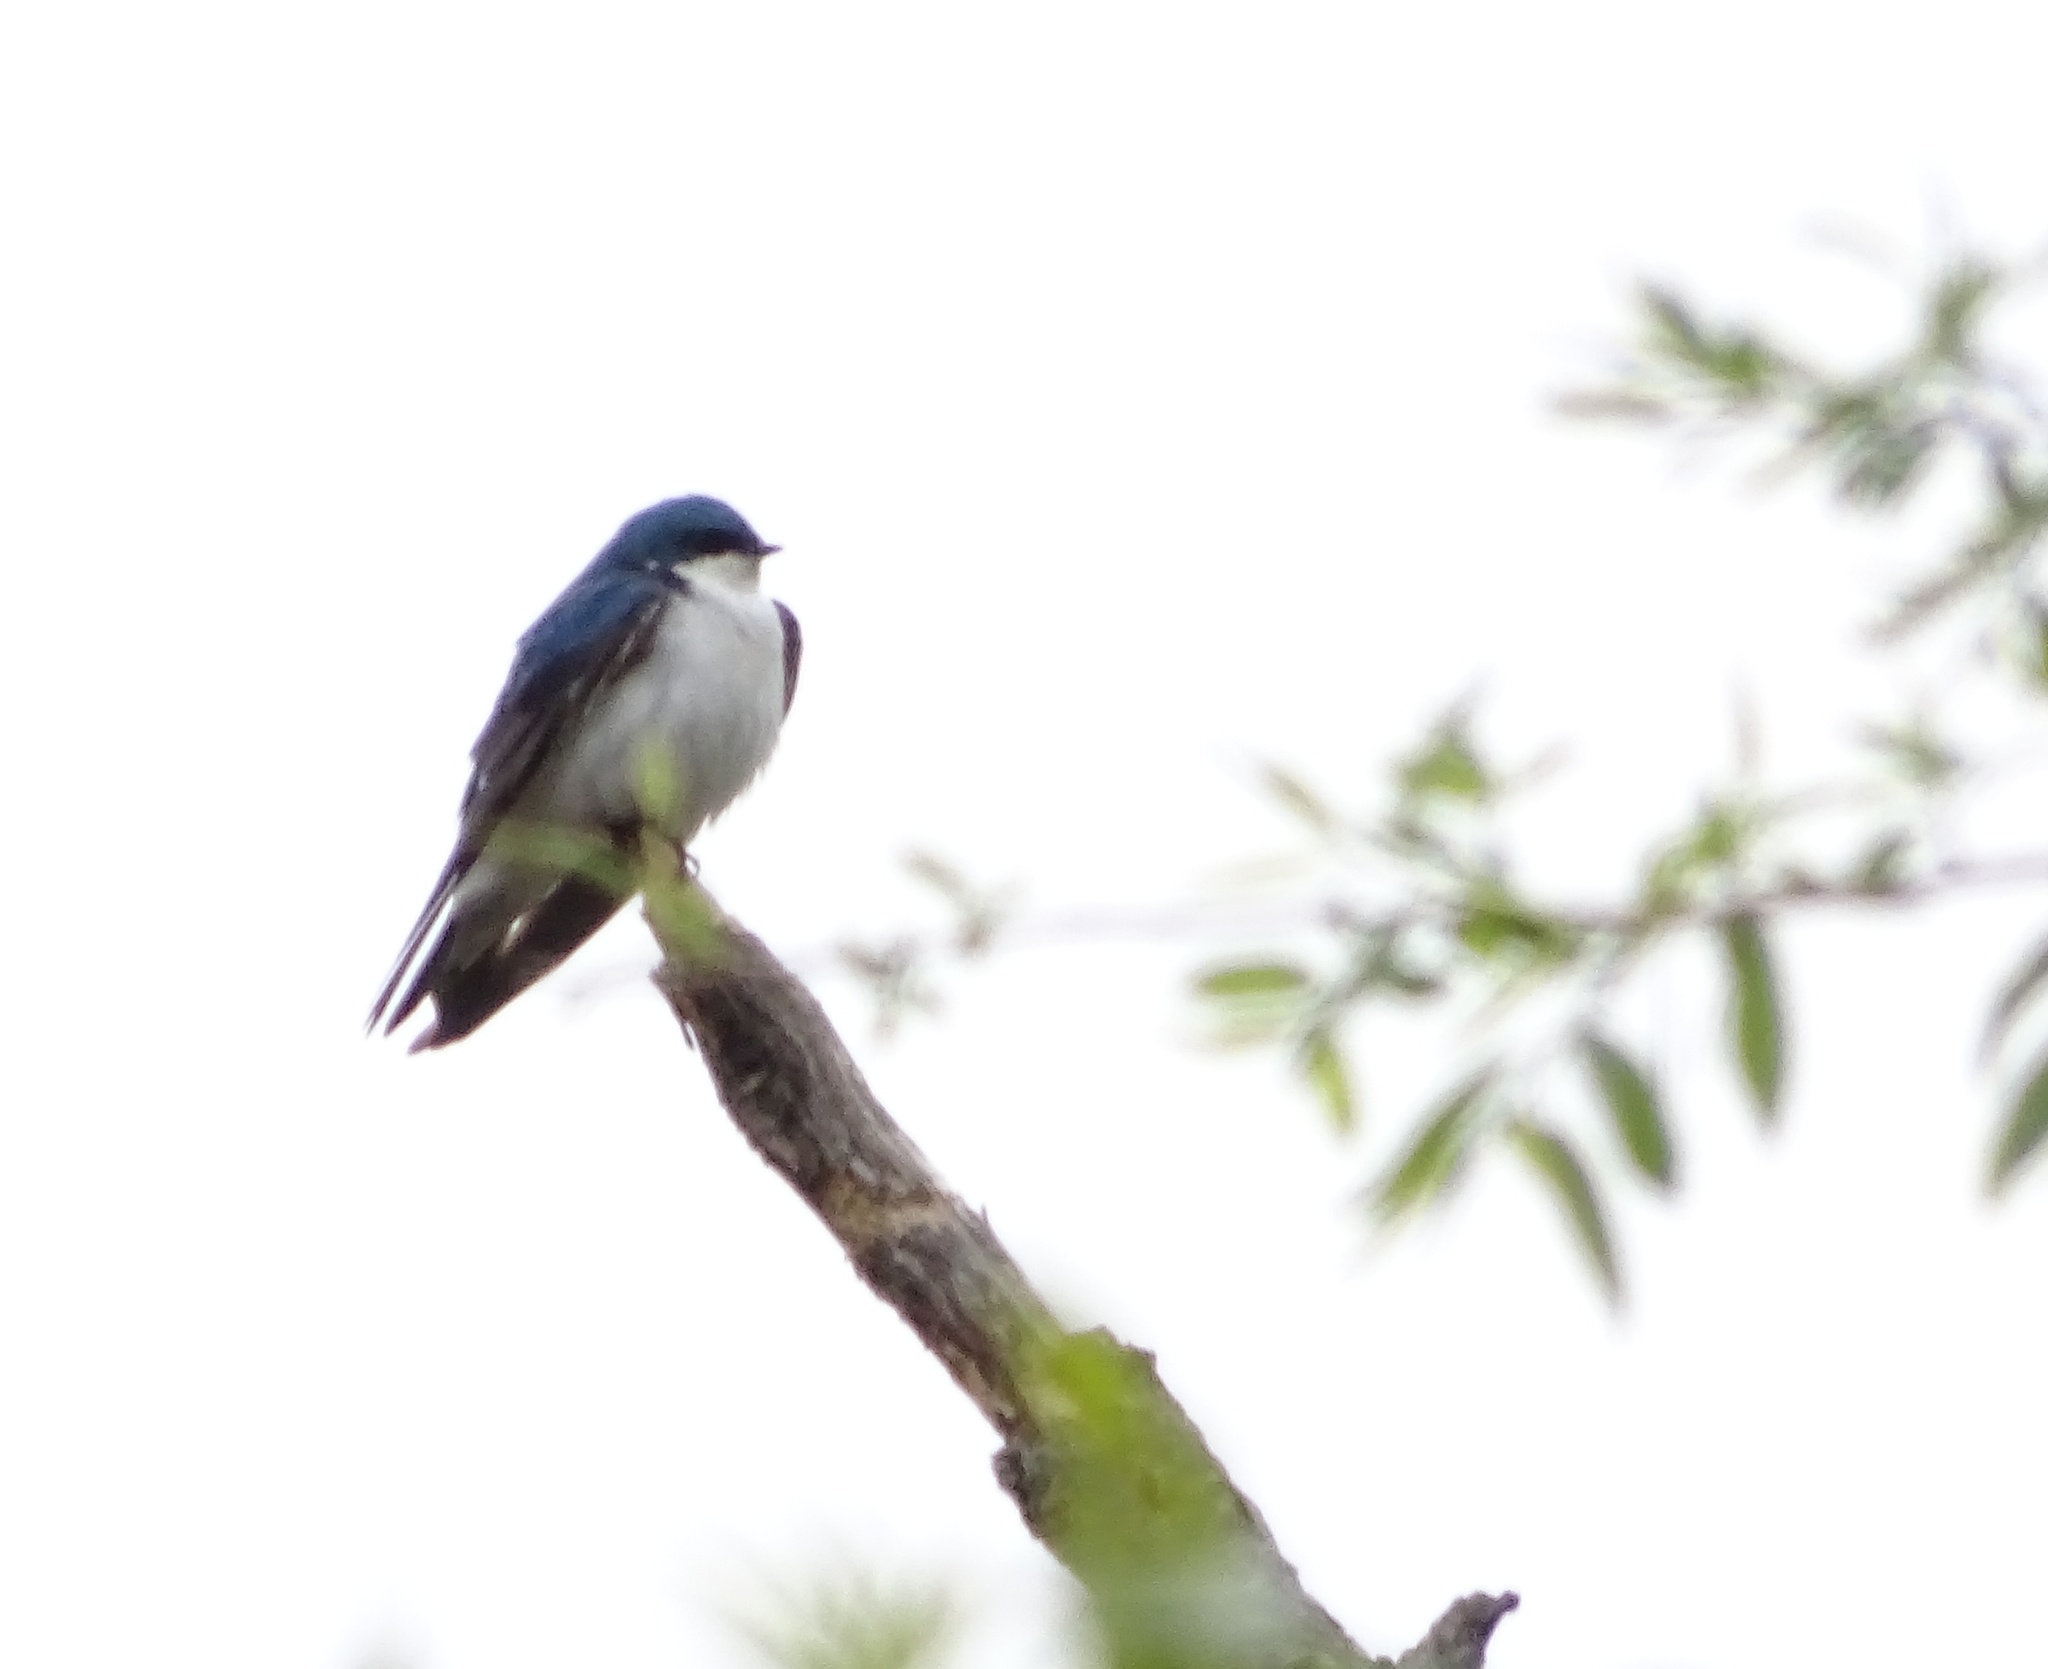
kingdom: Animalia
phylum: Chordata
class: Aves
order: Passeriformes
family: Hirundinidae
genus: Tachycineta
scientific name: Tachycineta bicolor
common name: Tree swallow
